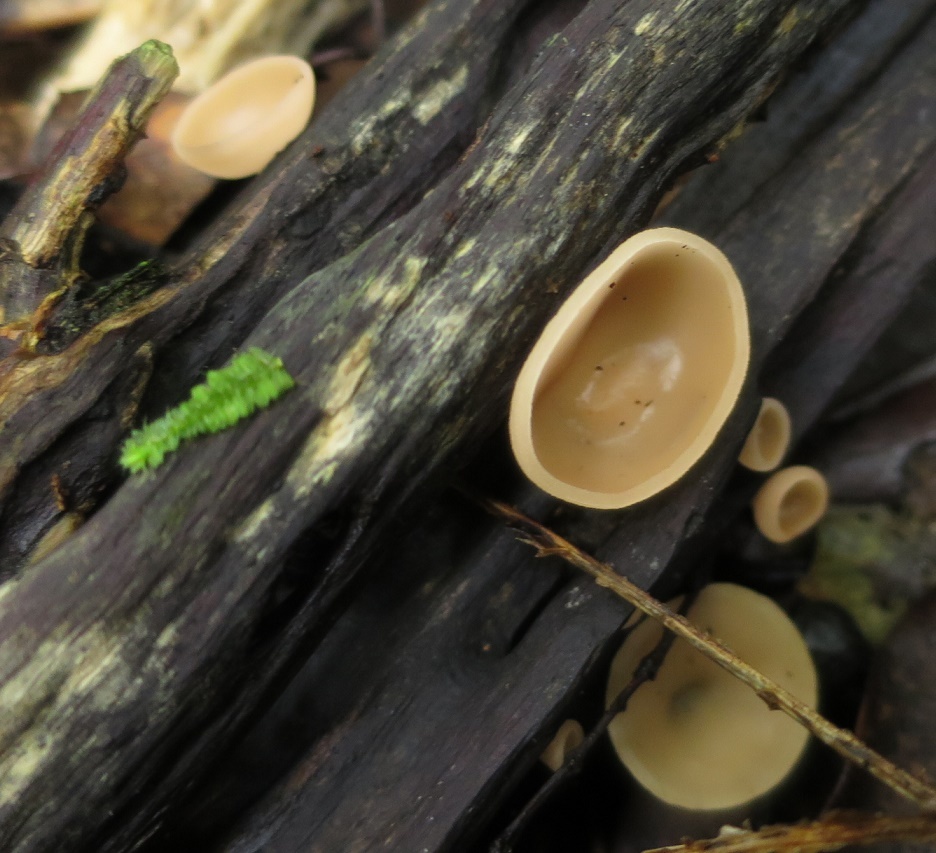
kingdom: Fungi
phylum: Ascomycota
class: Pezizomycetes
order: Pezizales
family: Sarcoscyphaceae
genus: Cookeina
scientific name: Cookeina colensoi
